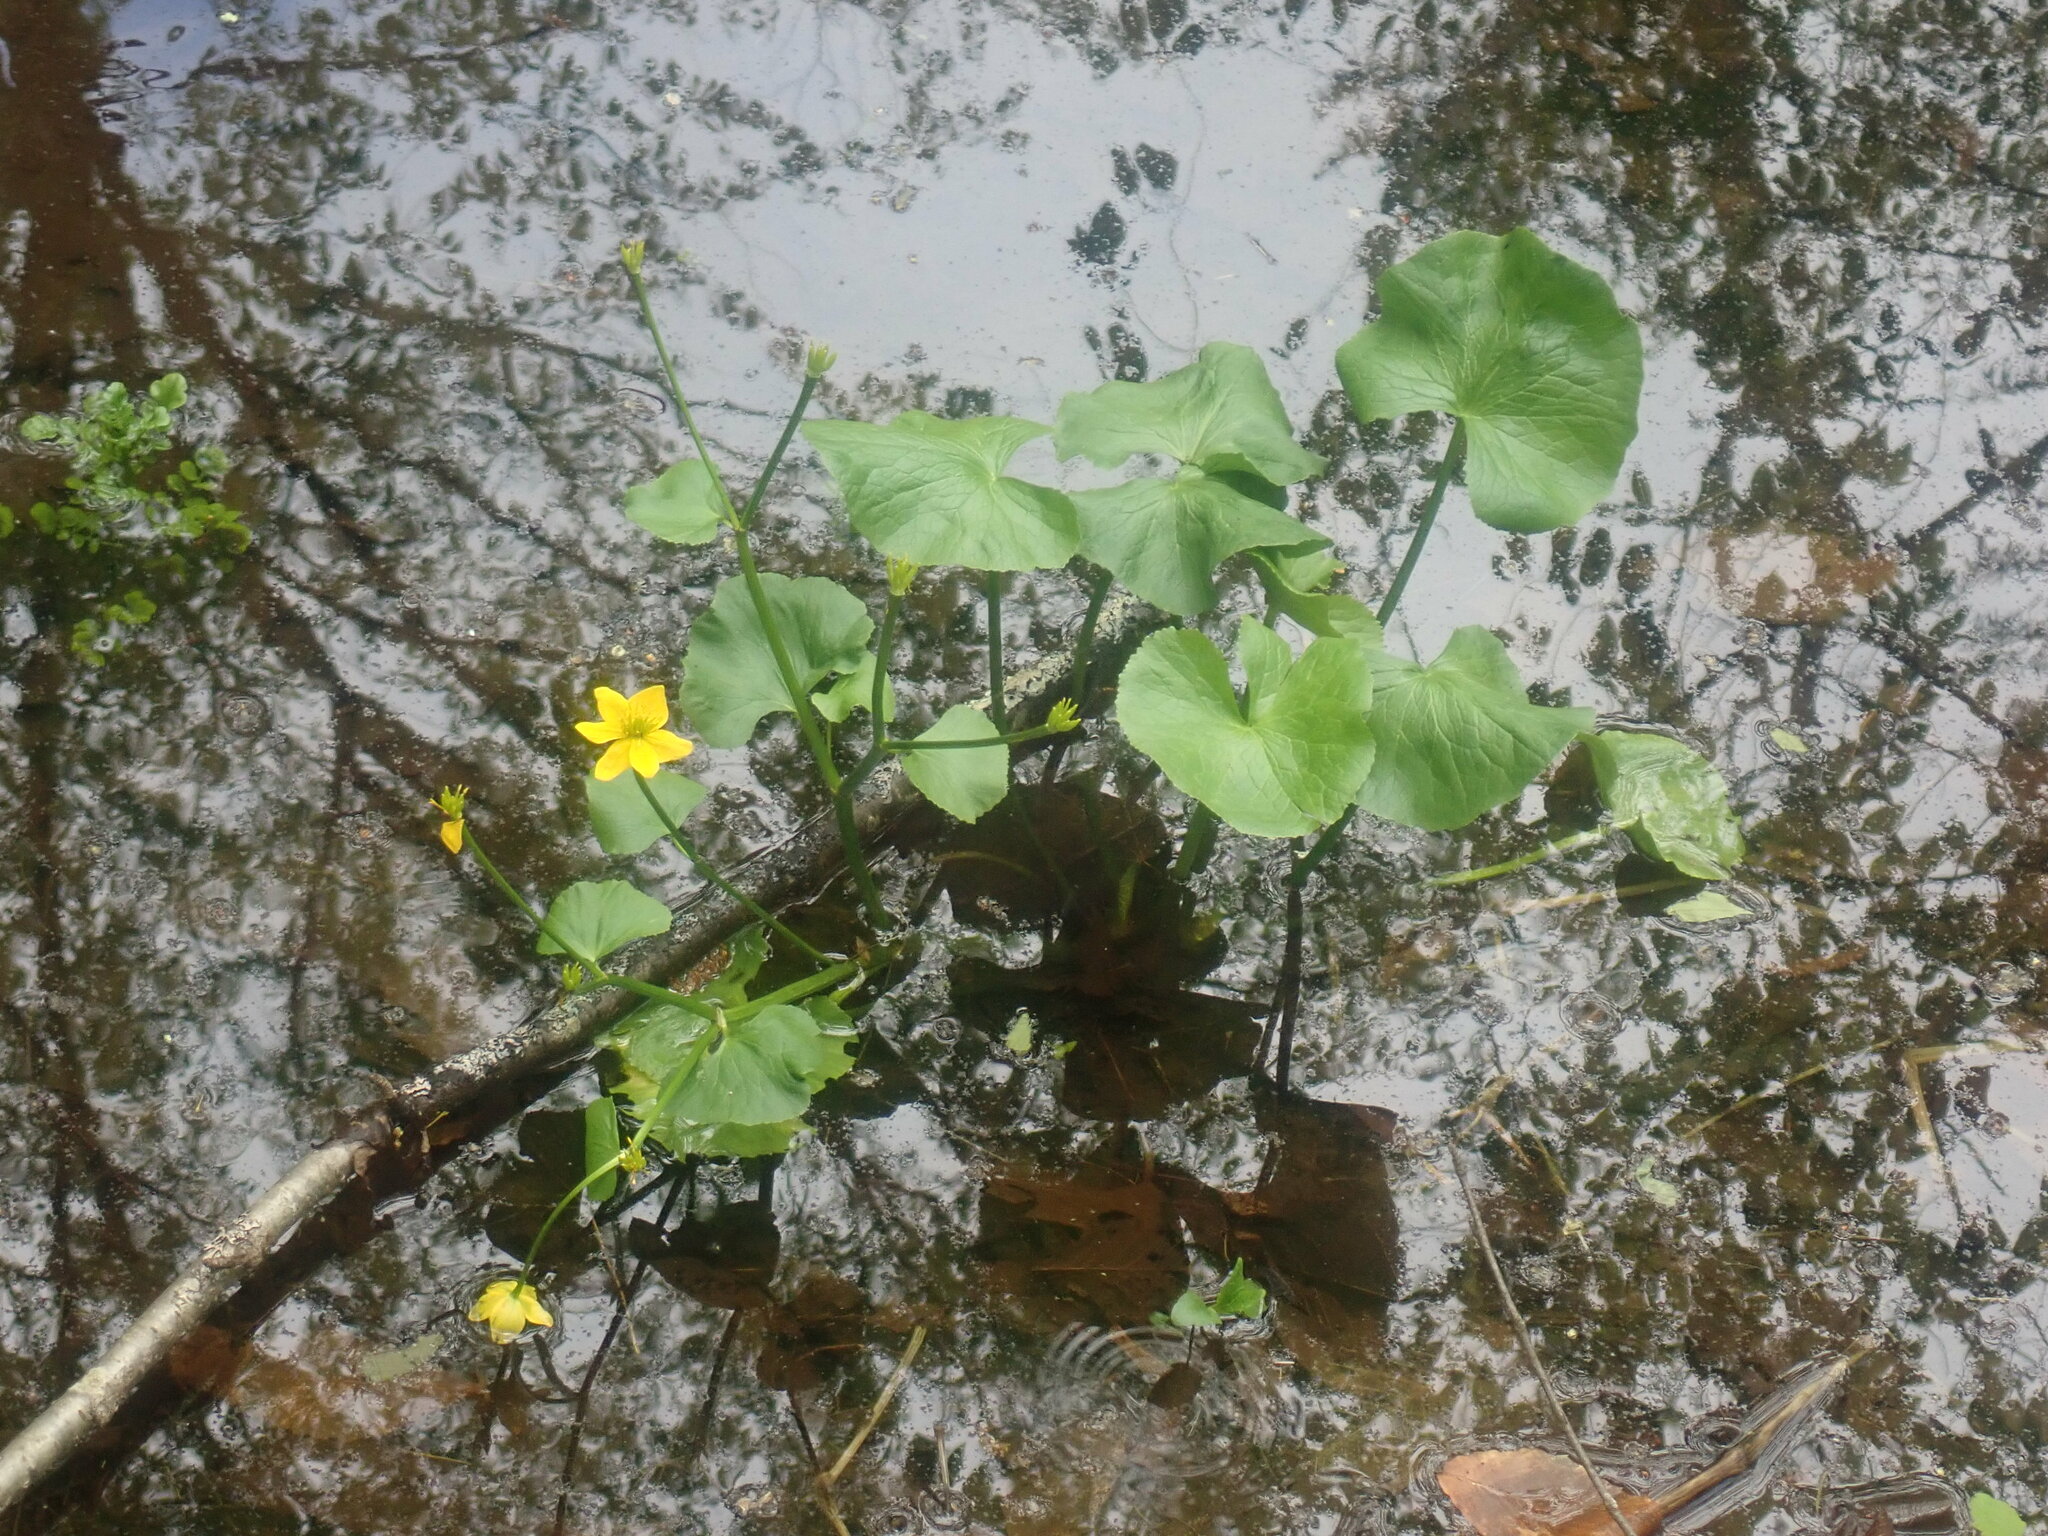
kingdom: Plantae
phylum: Tracheophyta
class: Magnoliopsida
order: Ranunculales
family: Ranunculaceae
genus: Caltha
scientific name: Caltha palustris
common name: Marsh marigold
